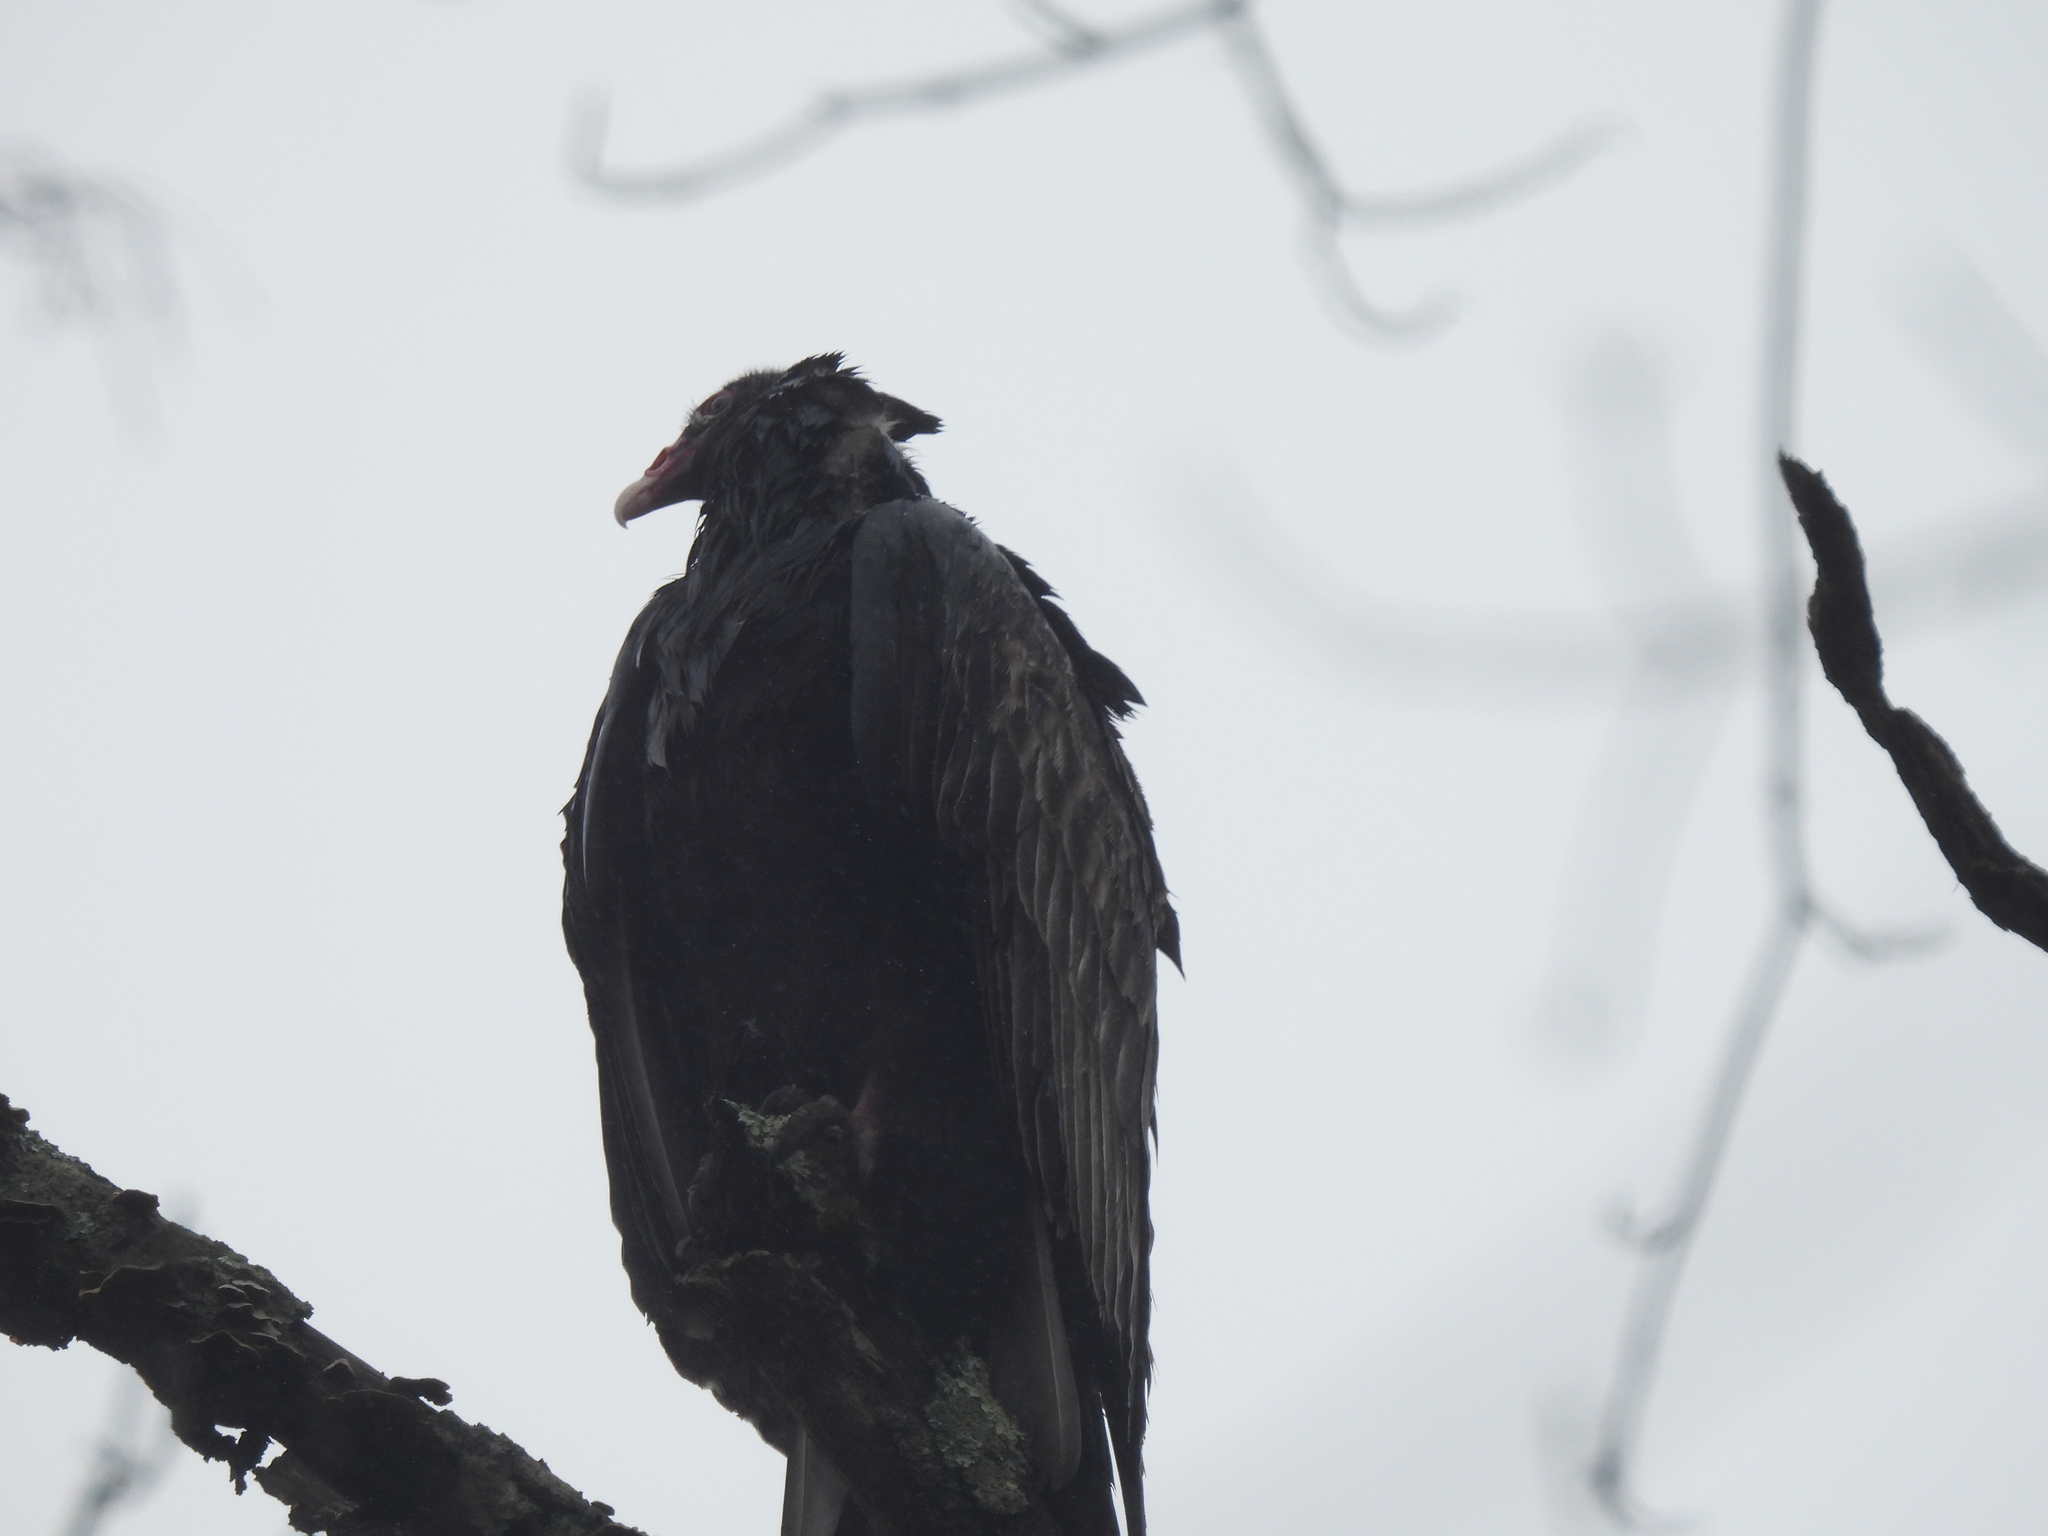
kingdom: Animalia
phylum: Chordata
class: Aves
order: Accipitriformes
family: Cathartidae
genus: Cathartes
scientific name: Cathartes aura
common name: Turkey vulture
